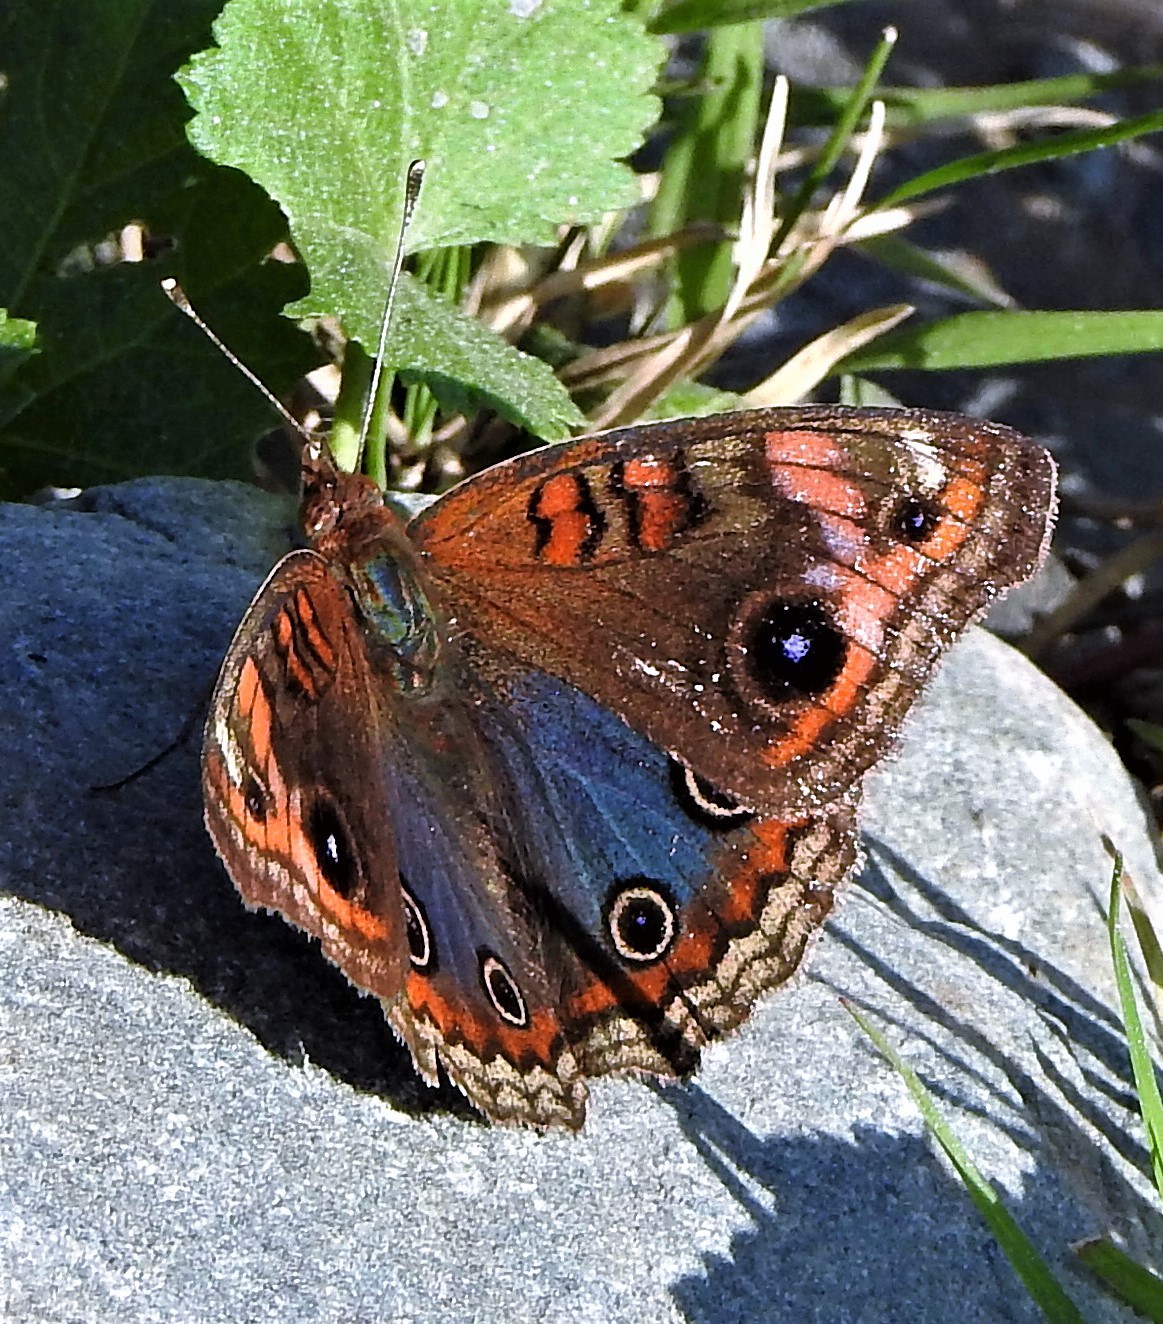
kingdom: Animalia
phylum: Arthropoda
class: Insecta
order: Lepidoptera
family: Nymphalidae
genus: Junonia
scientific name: Junonia lavinia
